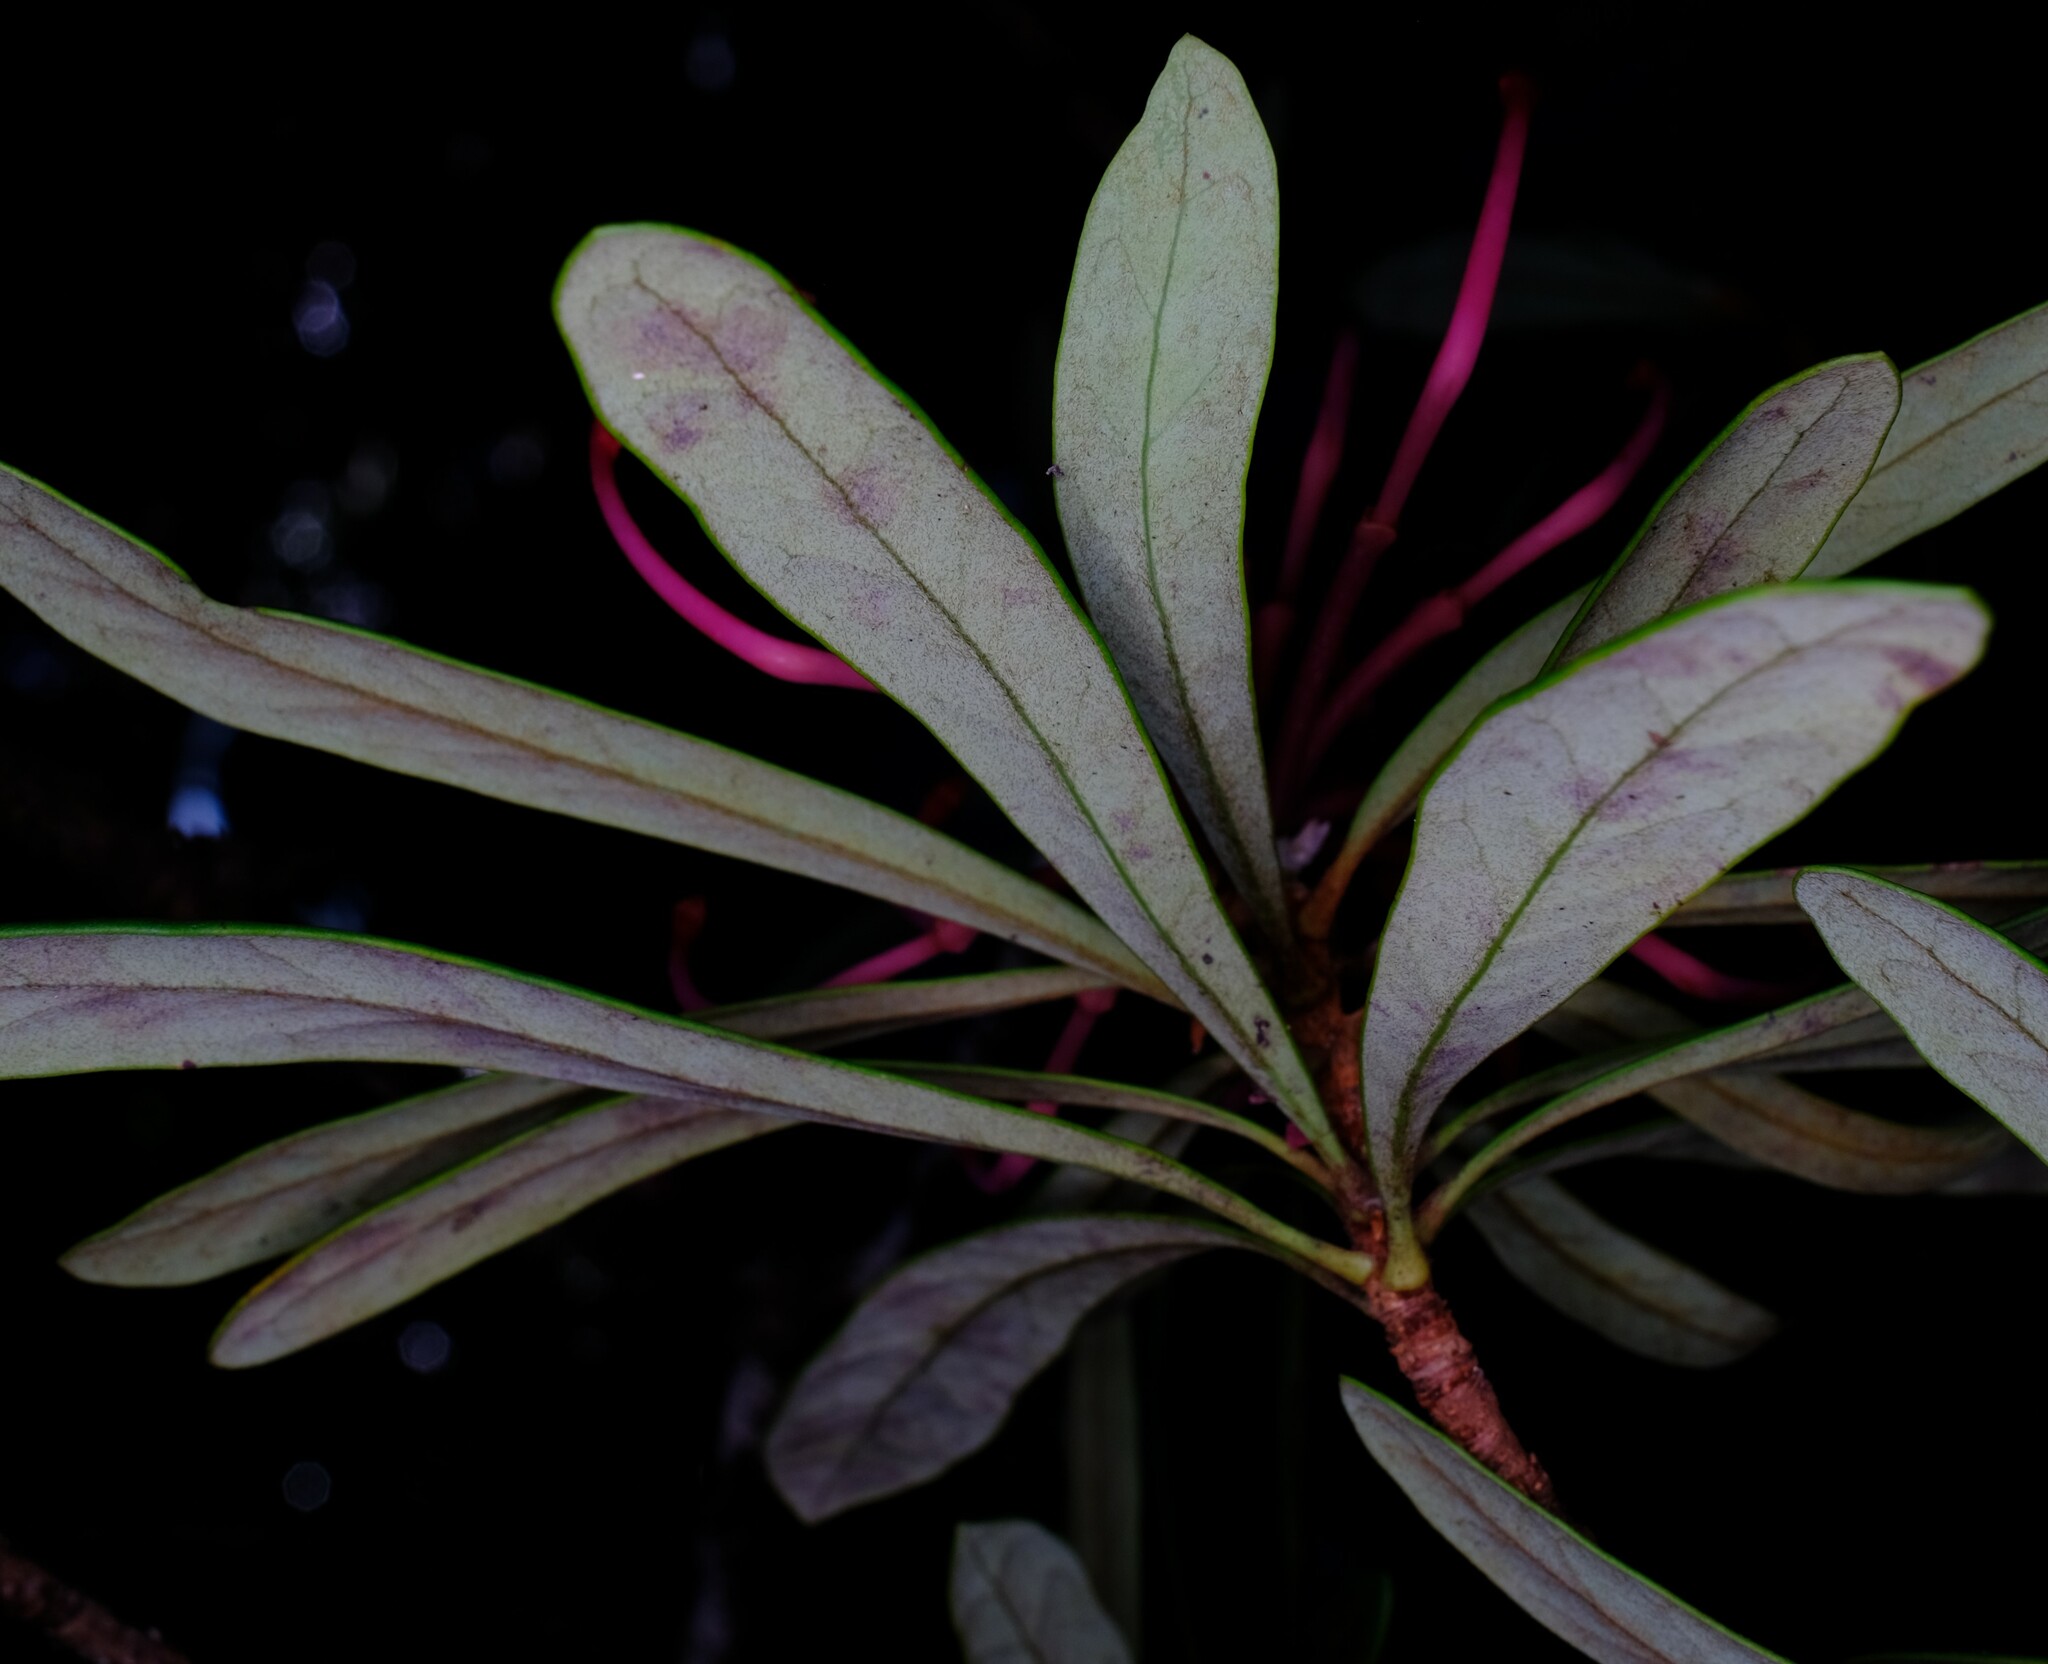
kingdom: Plantae
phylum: Tracheophyta
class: Magnoliopsida
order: Proteales
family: Proteaceae
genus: Telopea
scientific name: Telopea truncata
